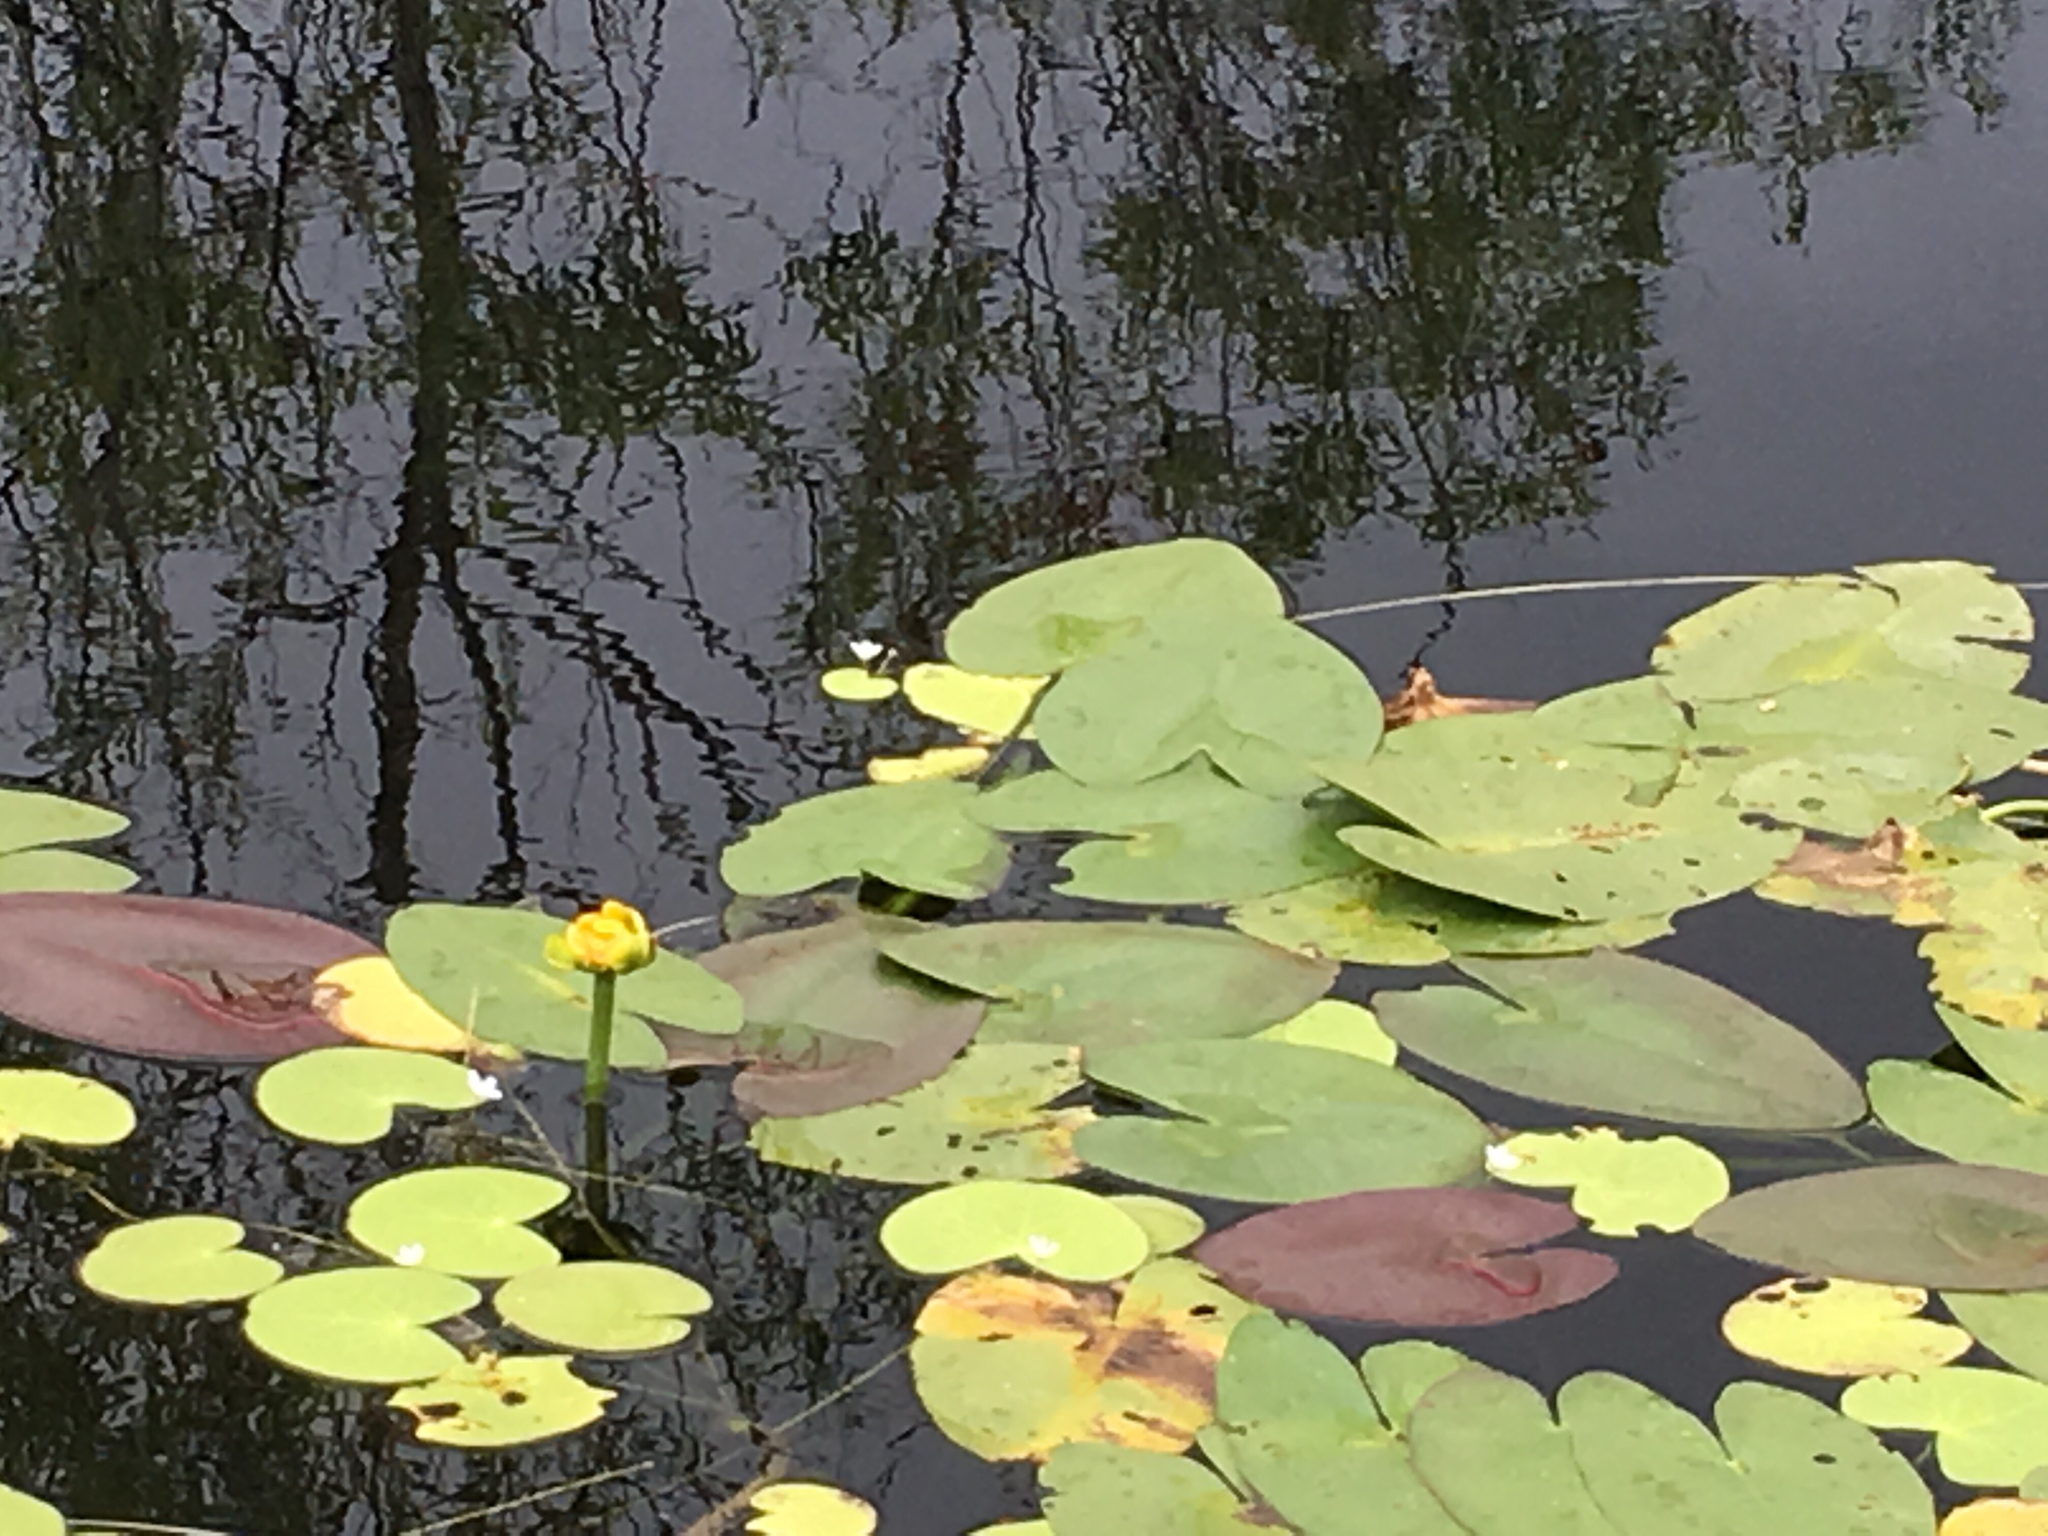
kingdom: Plantae
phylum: Tracheophyta
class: Magnoliopsida
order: Nymphaeales
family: Nymphaeaceae
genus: Nuphar
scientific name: Nuphar advena
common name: Spatter-dock
